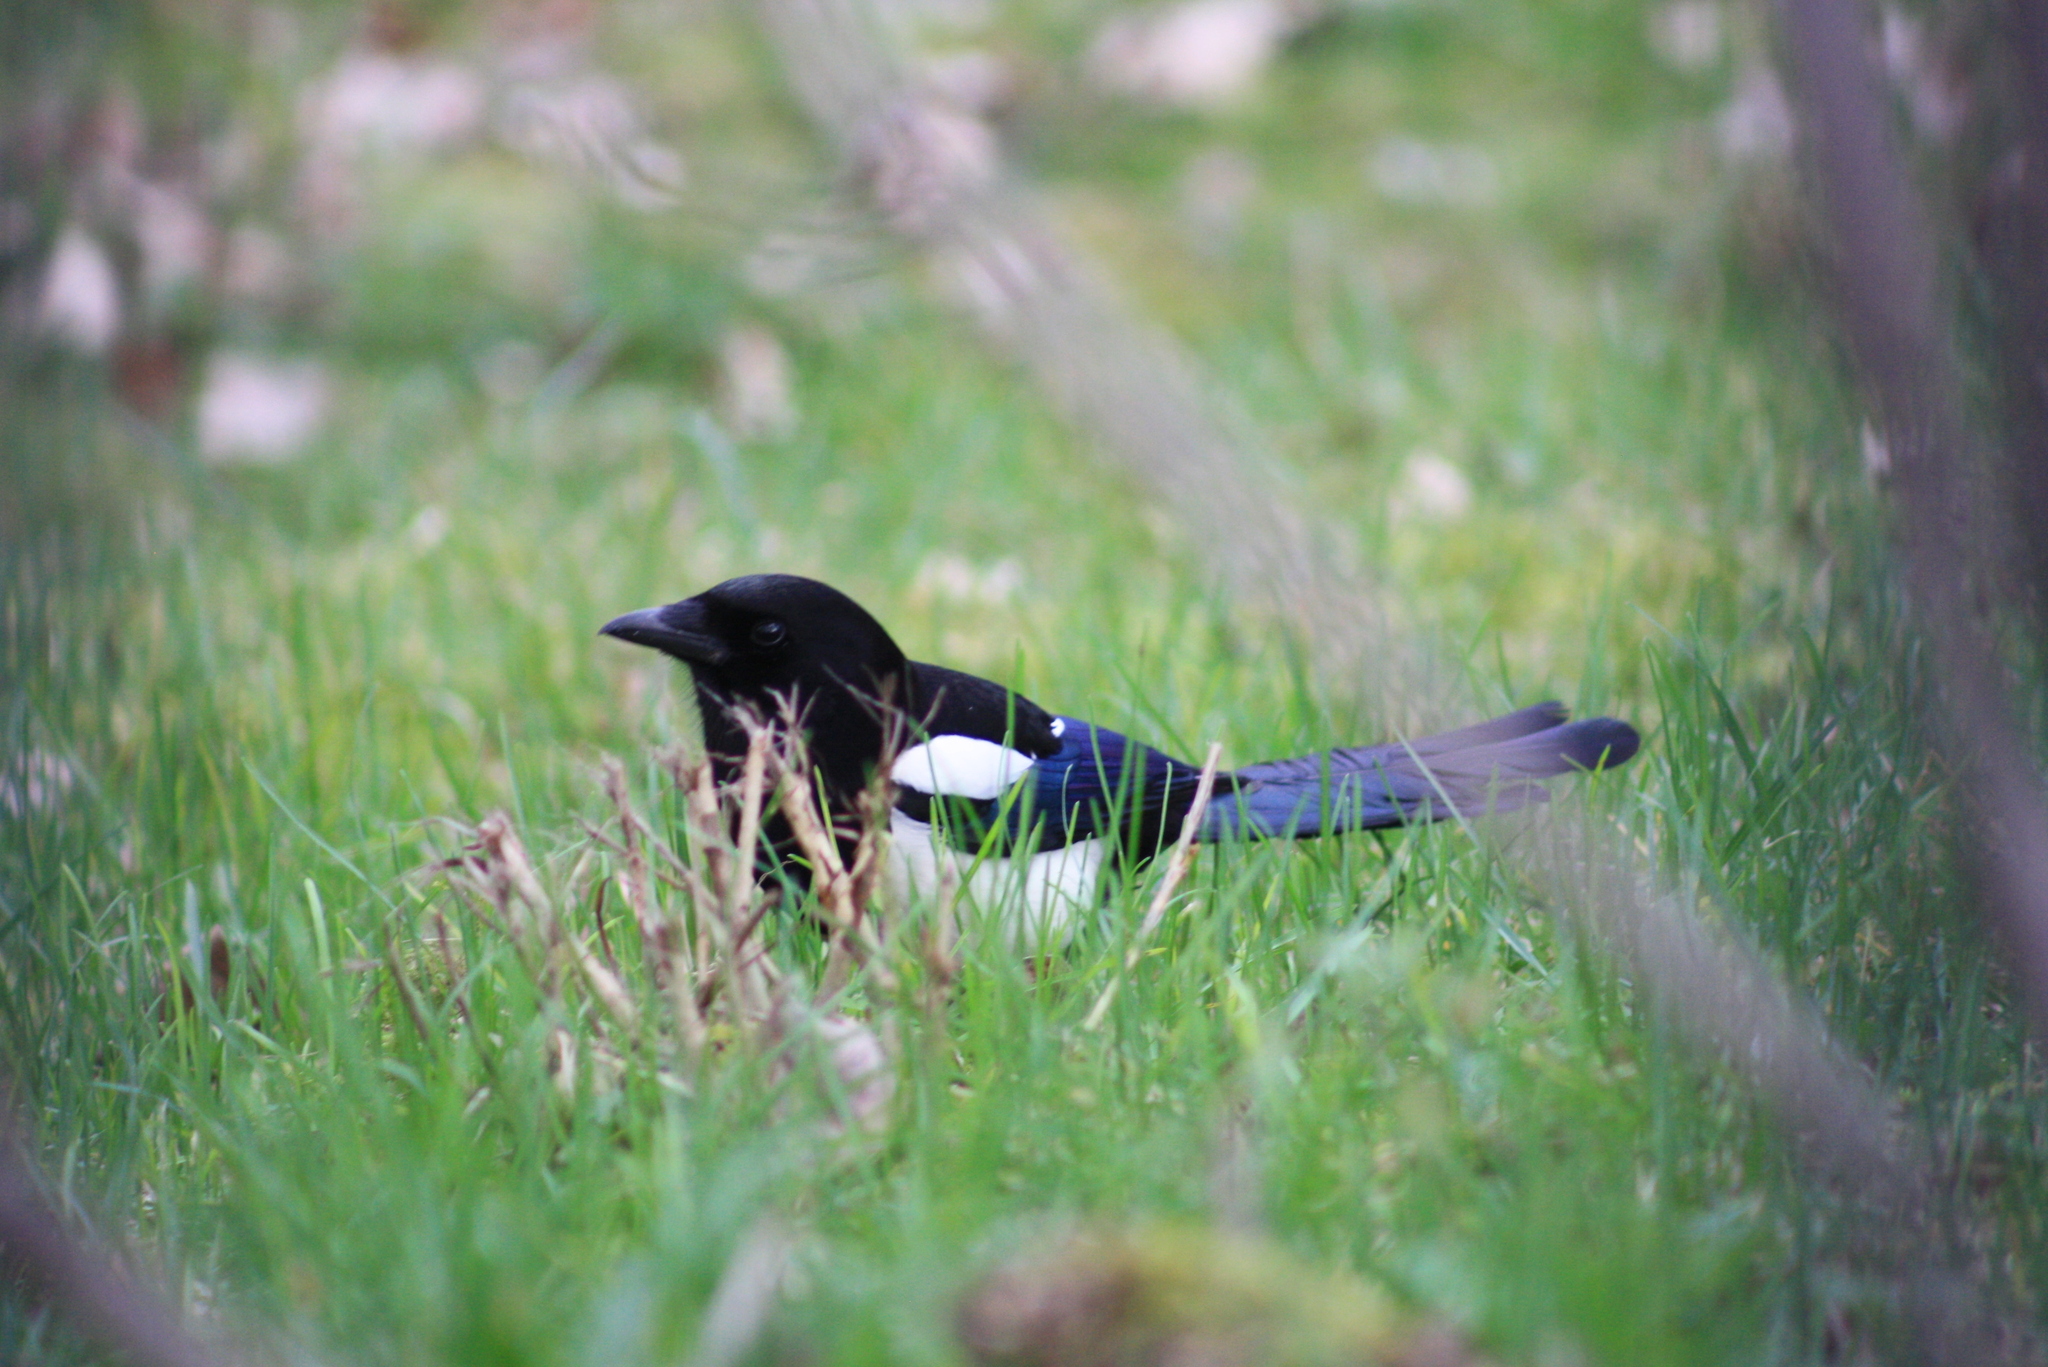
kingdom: Animalia
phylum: Chordata
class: Aves
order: Passeriformes
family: Corvidae
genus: Pica
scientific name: Pica pica
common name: Eurasian magpie
